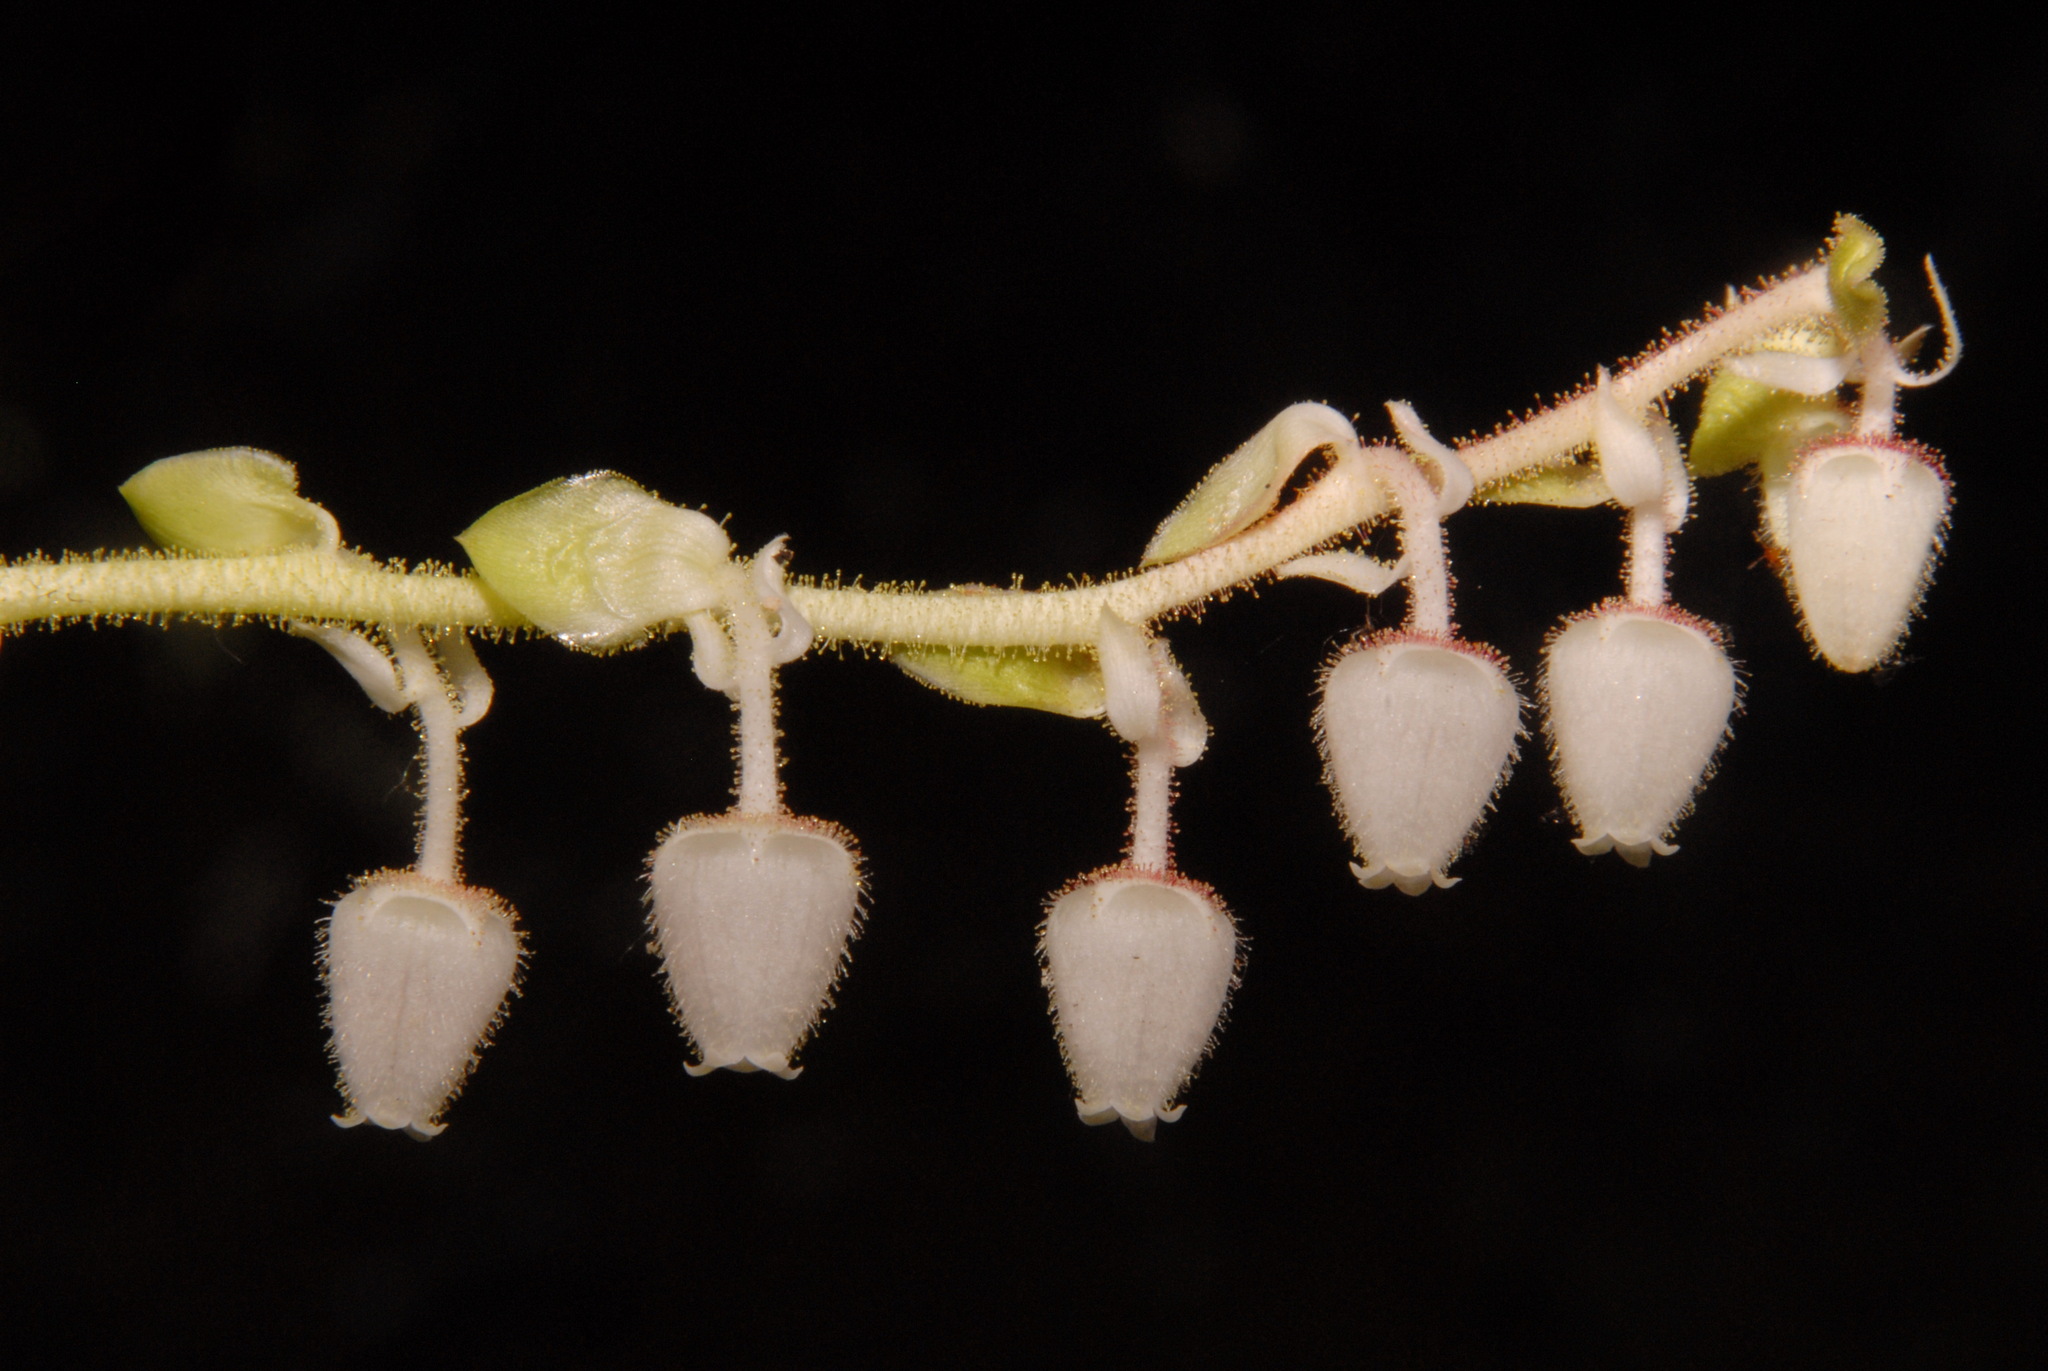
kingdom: Plantae
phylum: Tracheophyta
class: Magnoliopsida
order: Ericales
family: Ericaceae
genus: Gaultheria
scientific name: Gaultheria shallon
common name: Shallon
